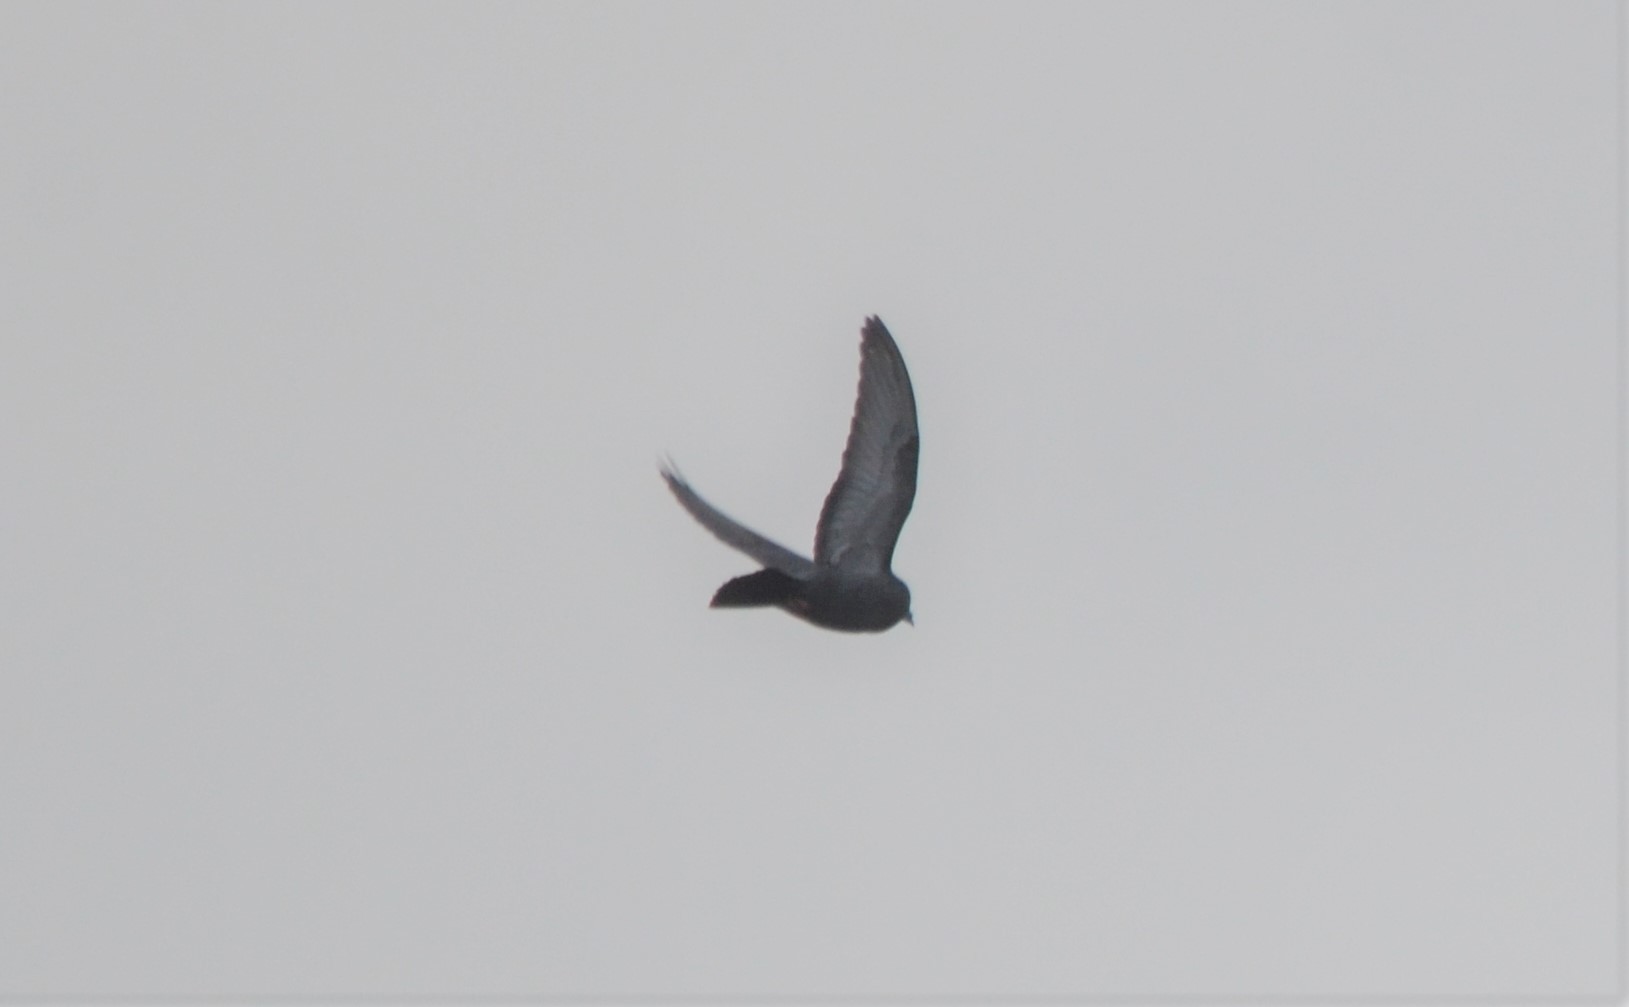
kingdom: Animalia
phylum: Chordata
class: Aves
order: Charadriiformes
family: Laridae
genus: Chroicocephalus
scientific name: Chroicocephalus ridibundus
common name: Black-headed gull
